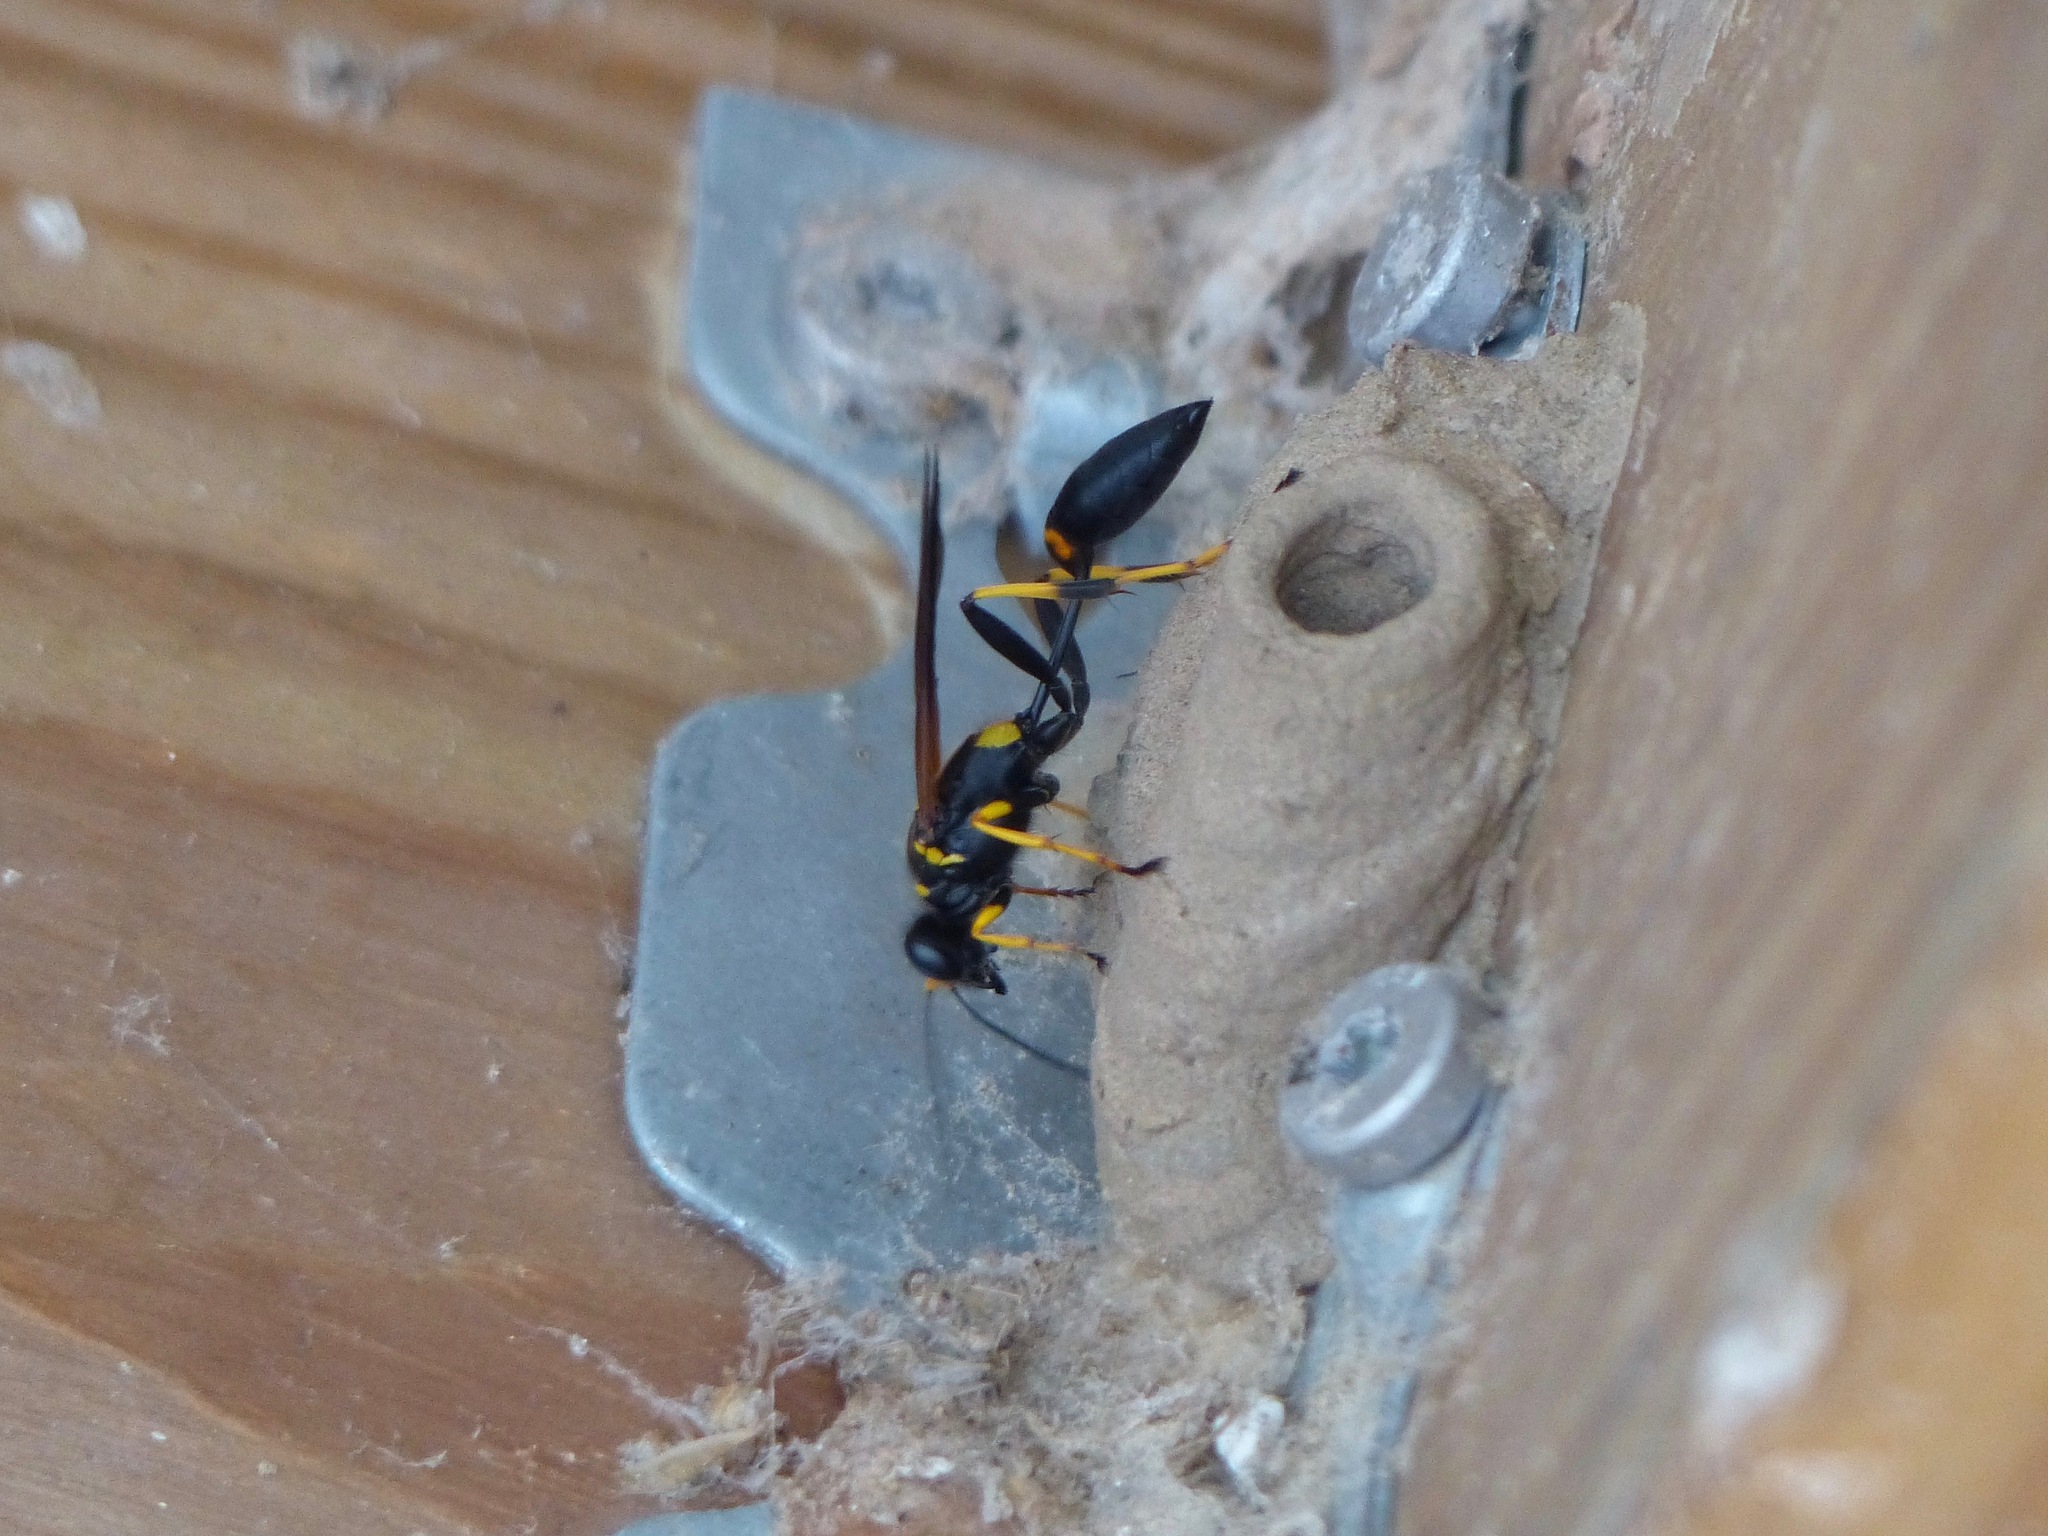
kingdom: Animalia
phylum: Arthropoda
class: Insecta
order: Hymenoptera
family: Sphecidae
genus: Sceliphron
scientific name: Sceliphron caementarium
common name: Mud dauber
